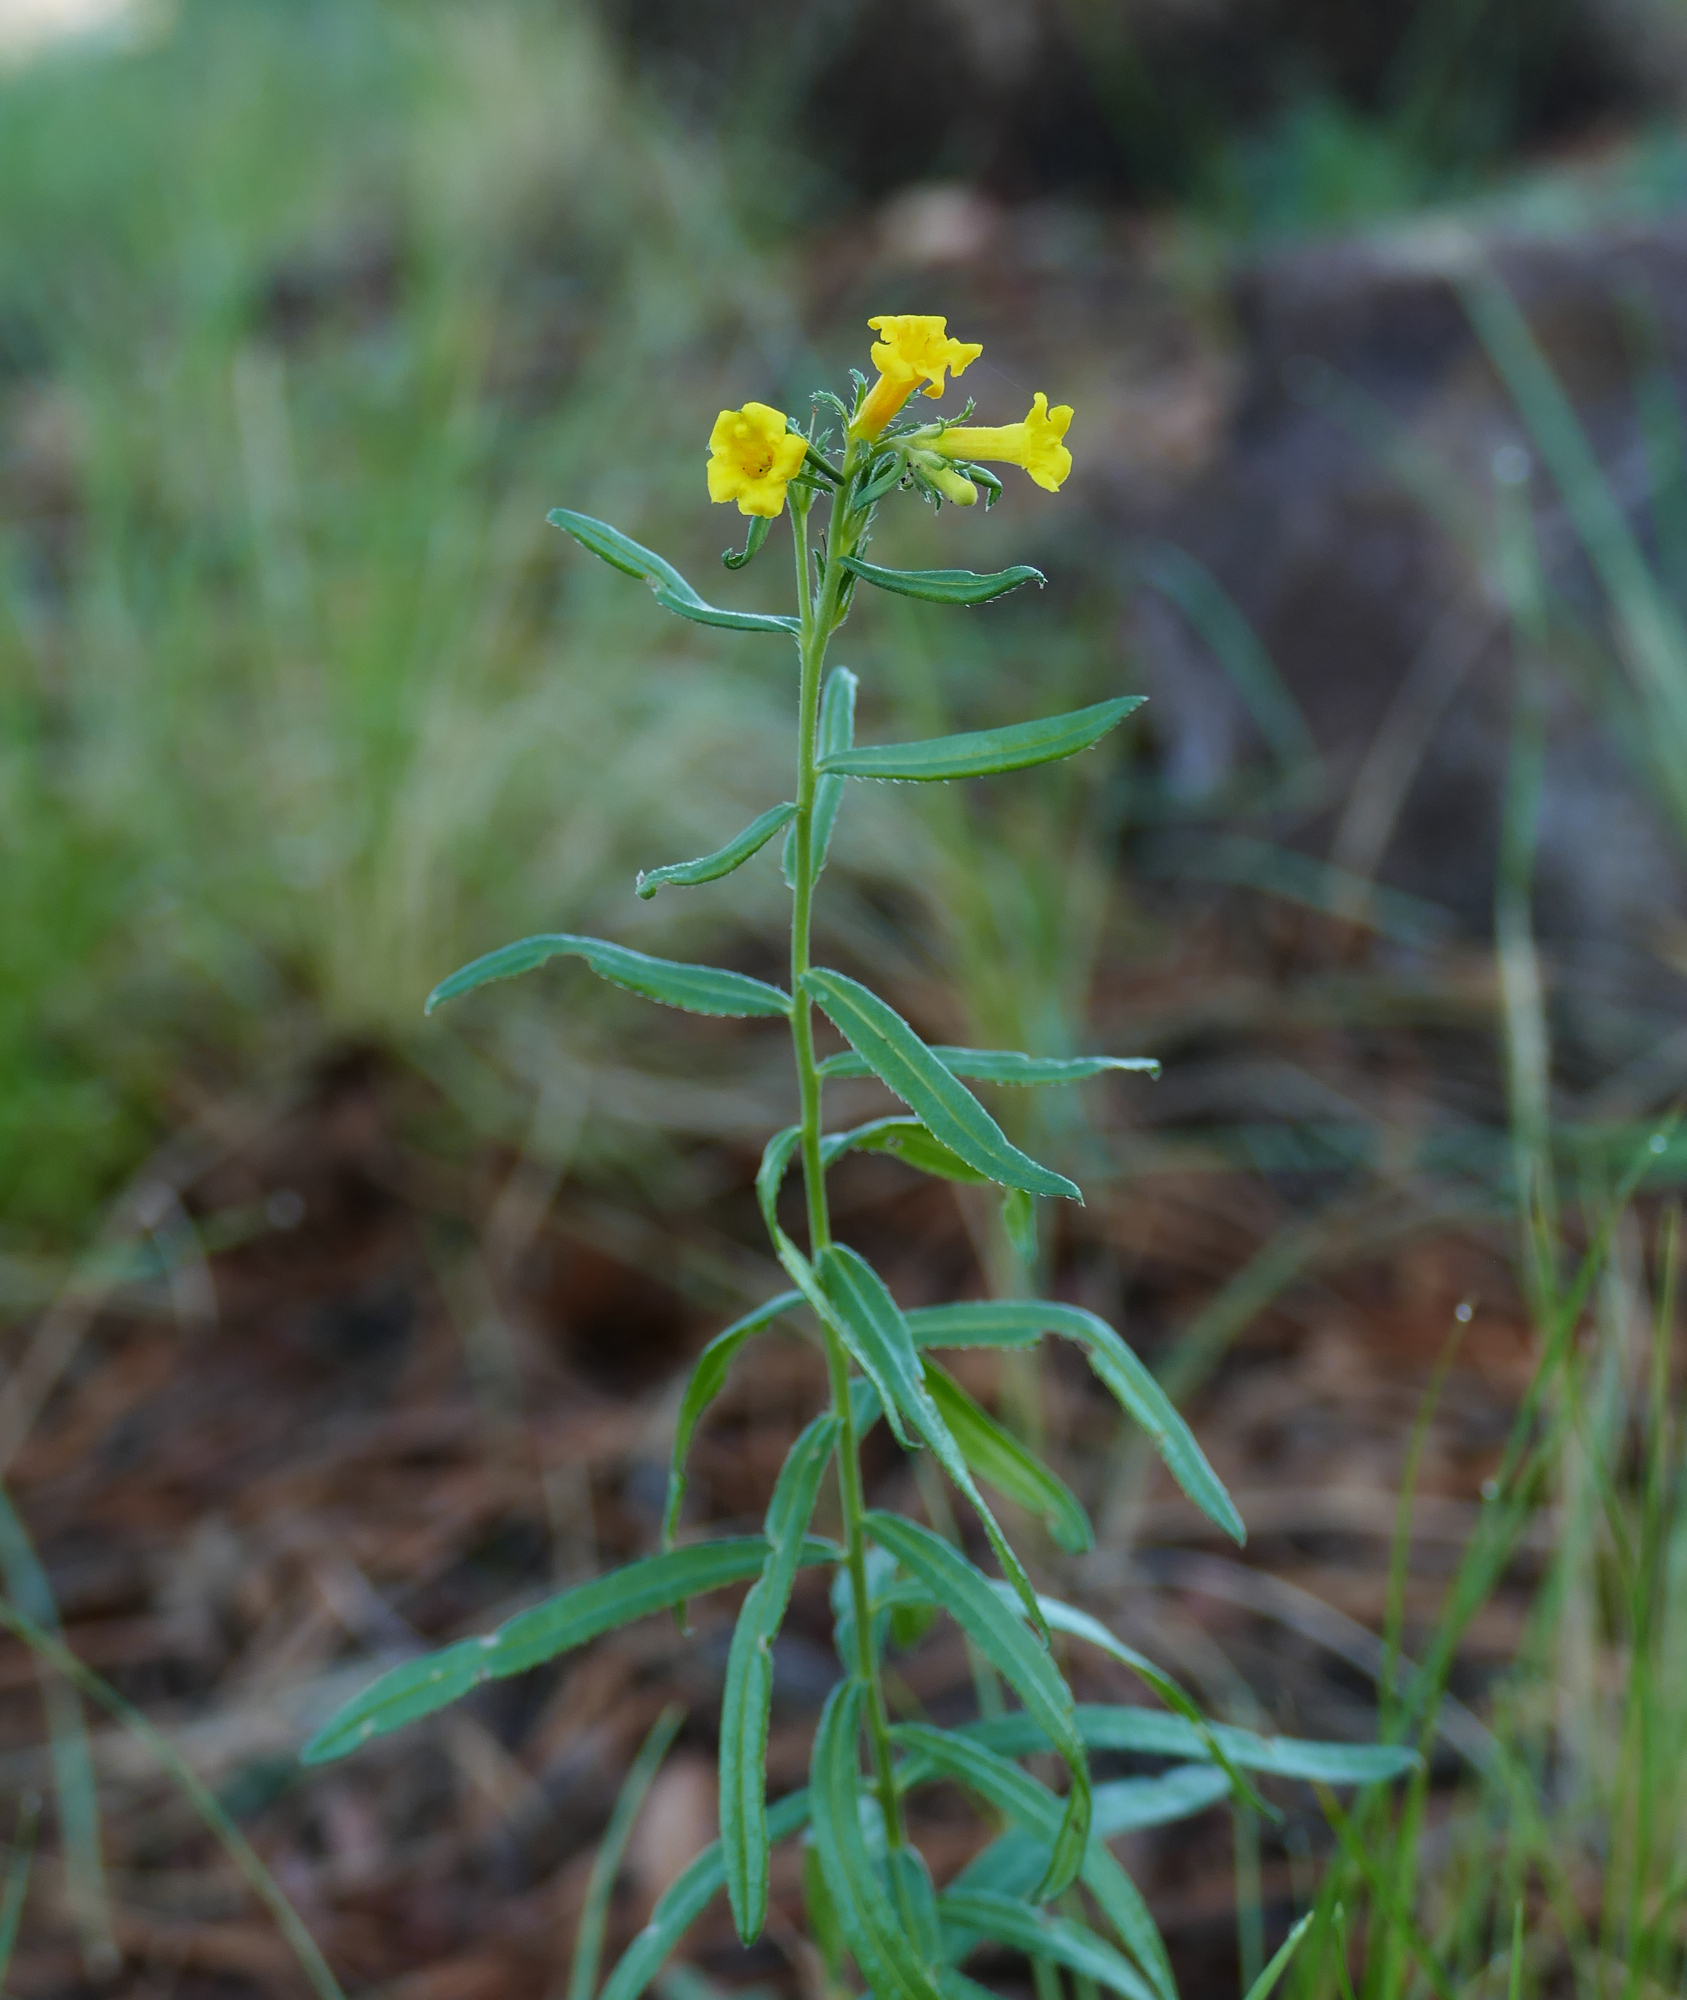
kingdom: Plantae
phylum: Tracheophyta
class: Magnoliopsida
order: Boraginales
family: Boraginaceae
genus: Lithospermum
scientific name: Lithospermum multiflorum
